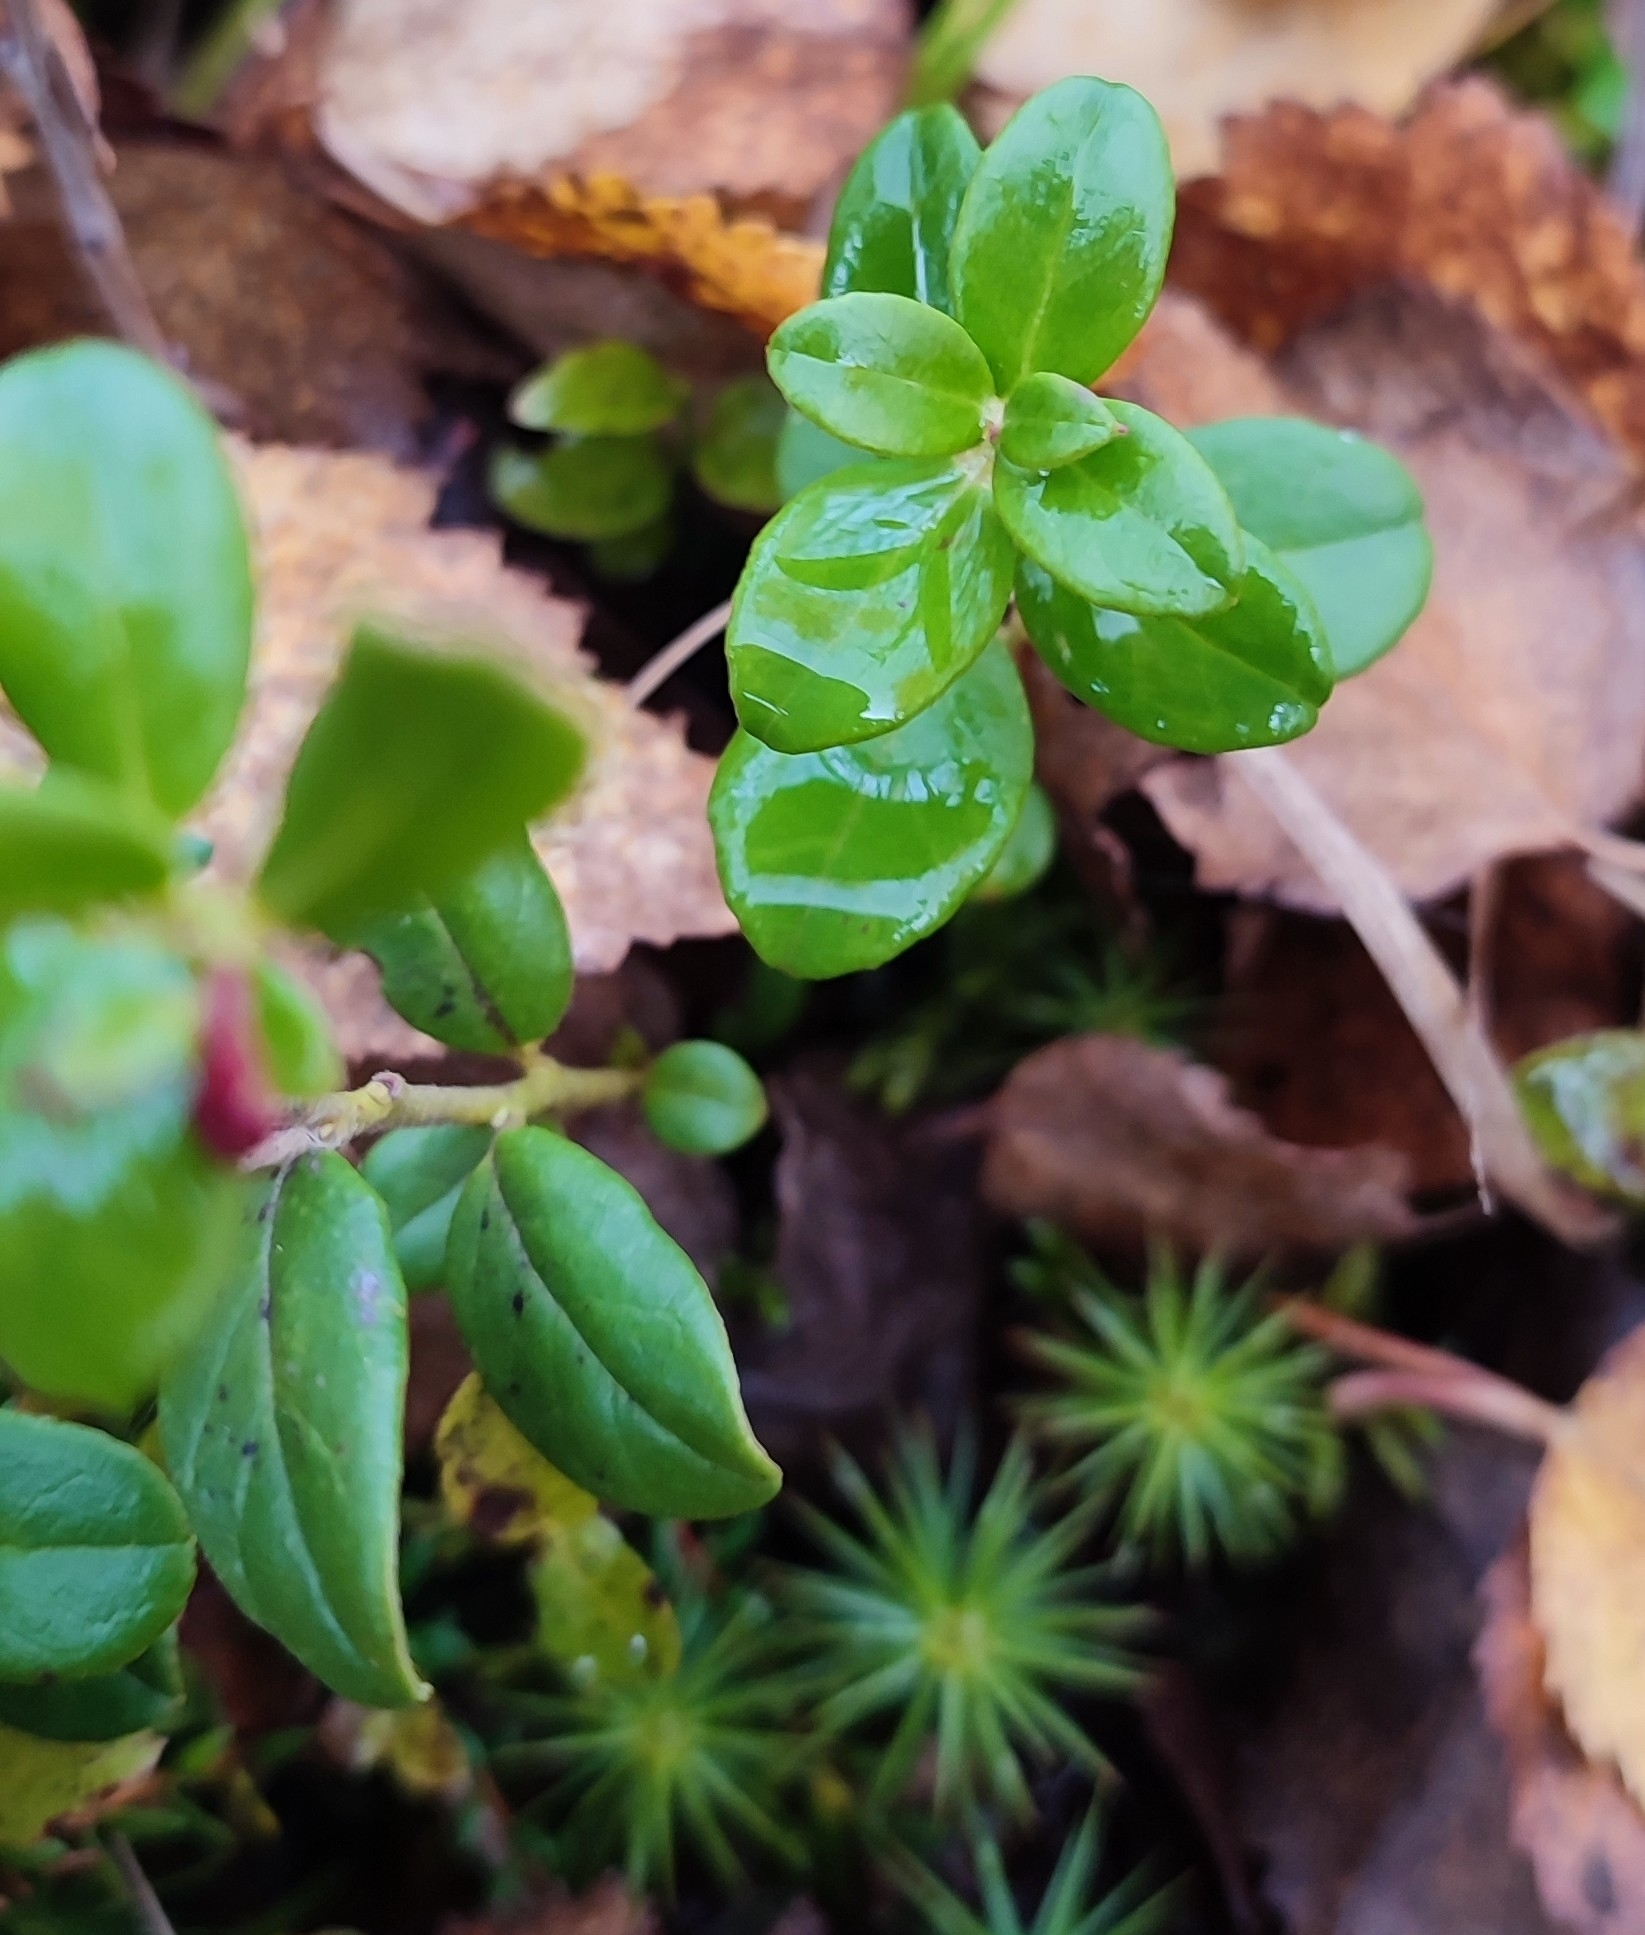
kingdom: Plantae
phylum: Tracheophyta
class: Magnoliopsida
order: Ericales
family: Ericaceae
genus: Vaccinium
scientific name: Vaccinium vitis-idaea
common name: Cowberry
